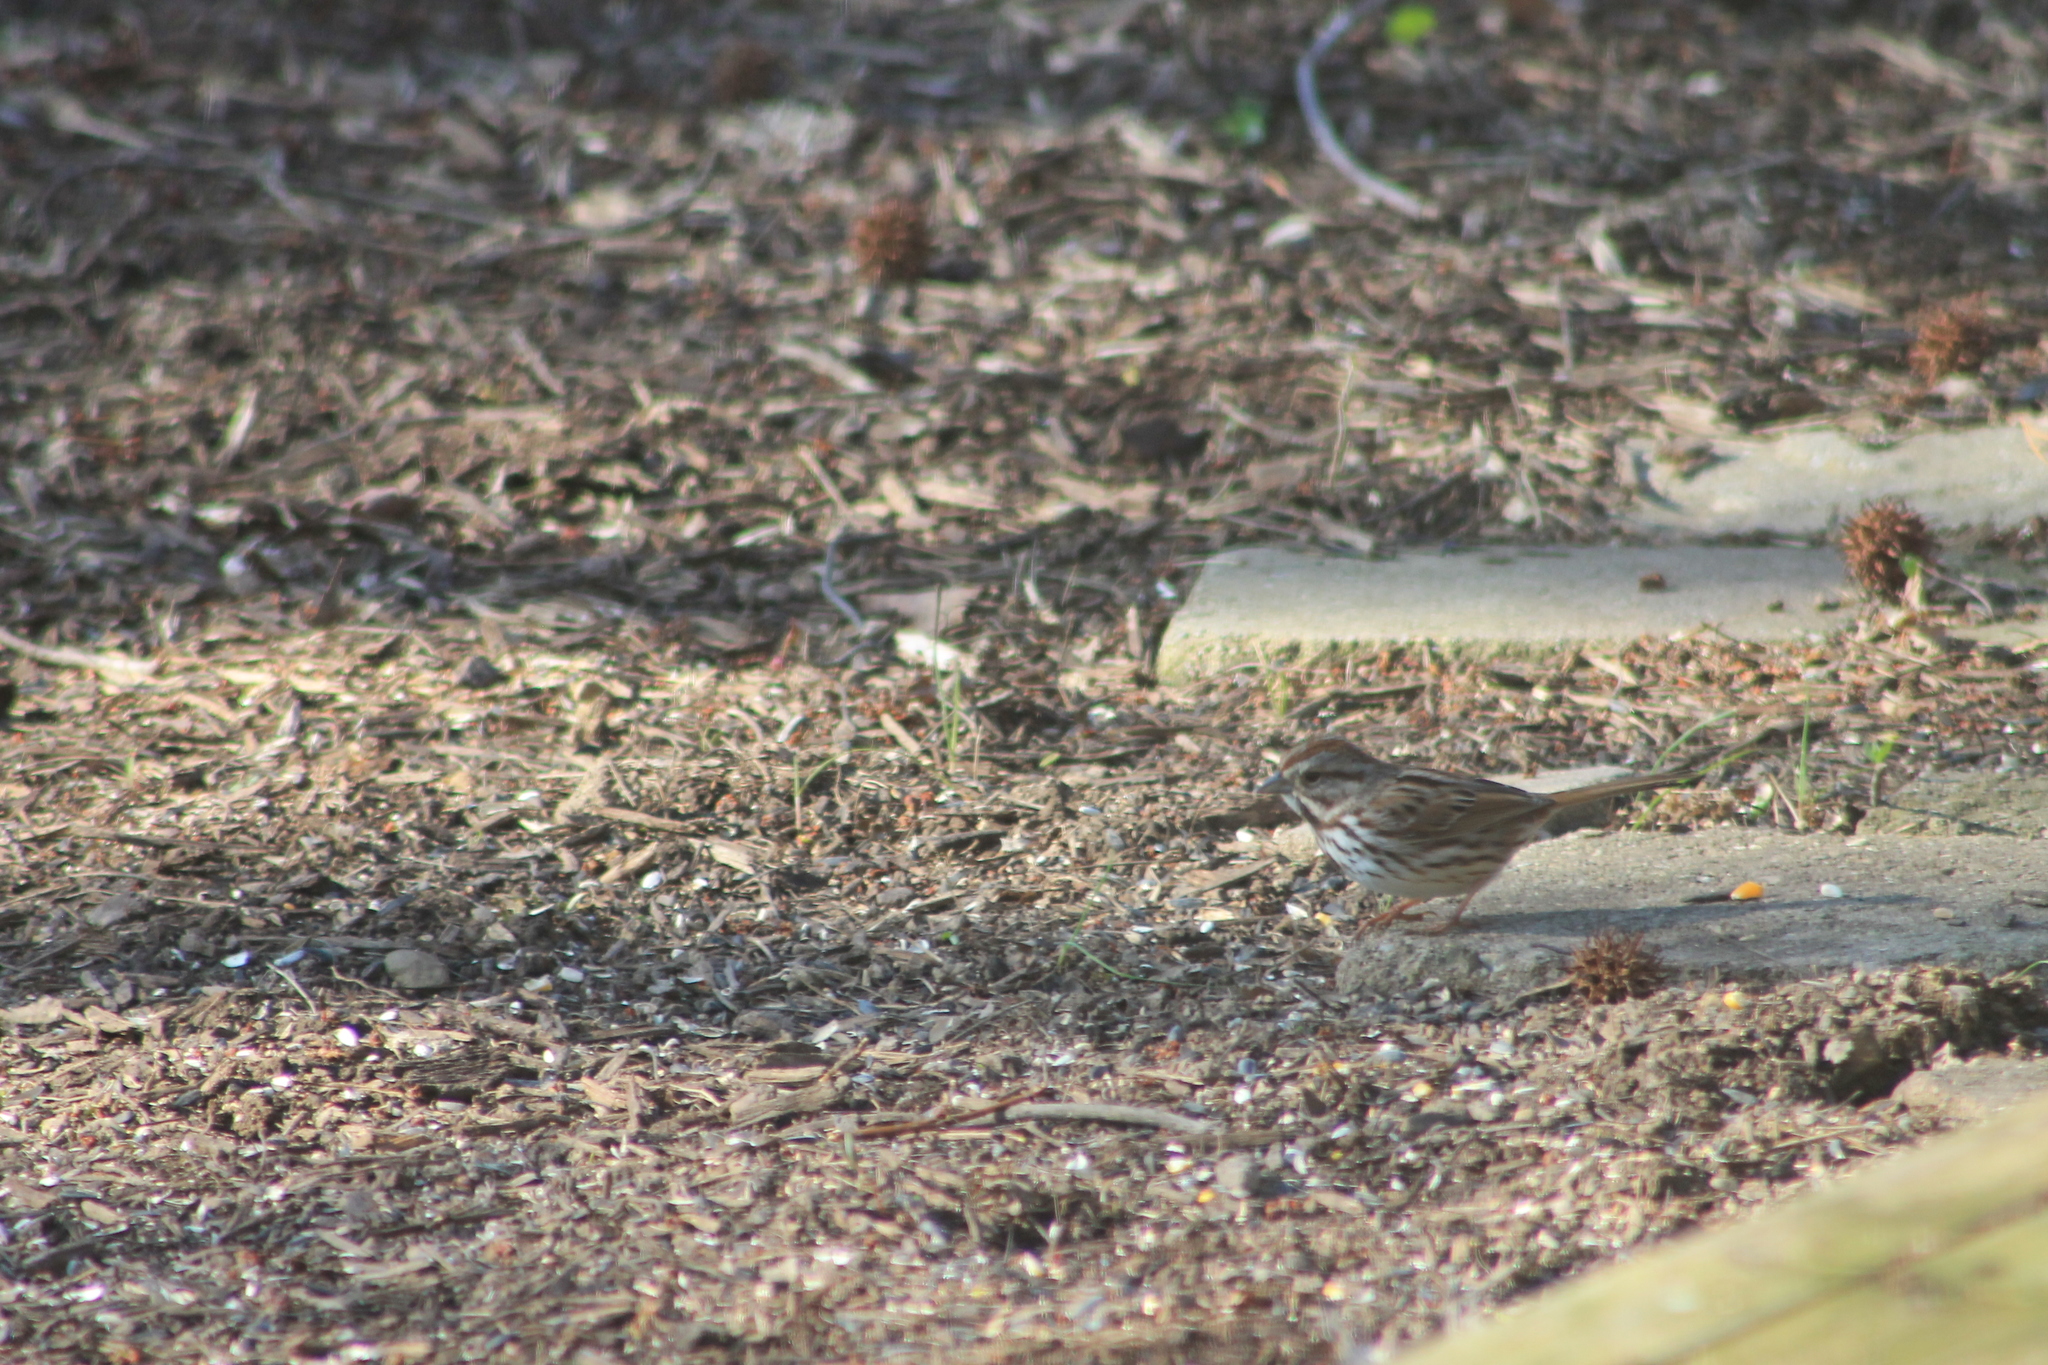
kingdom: Animalia
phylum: Chordata
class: Aves
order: Passeriformes
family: Passerellidae
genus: Melospiza
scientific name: Melospiza melodia
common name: Song sparrow
